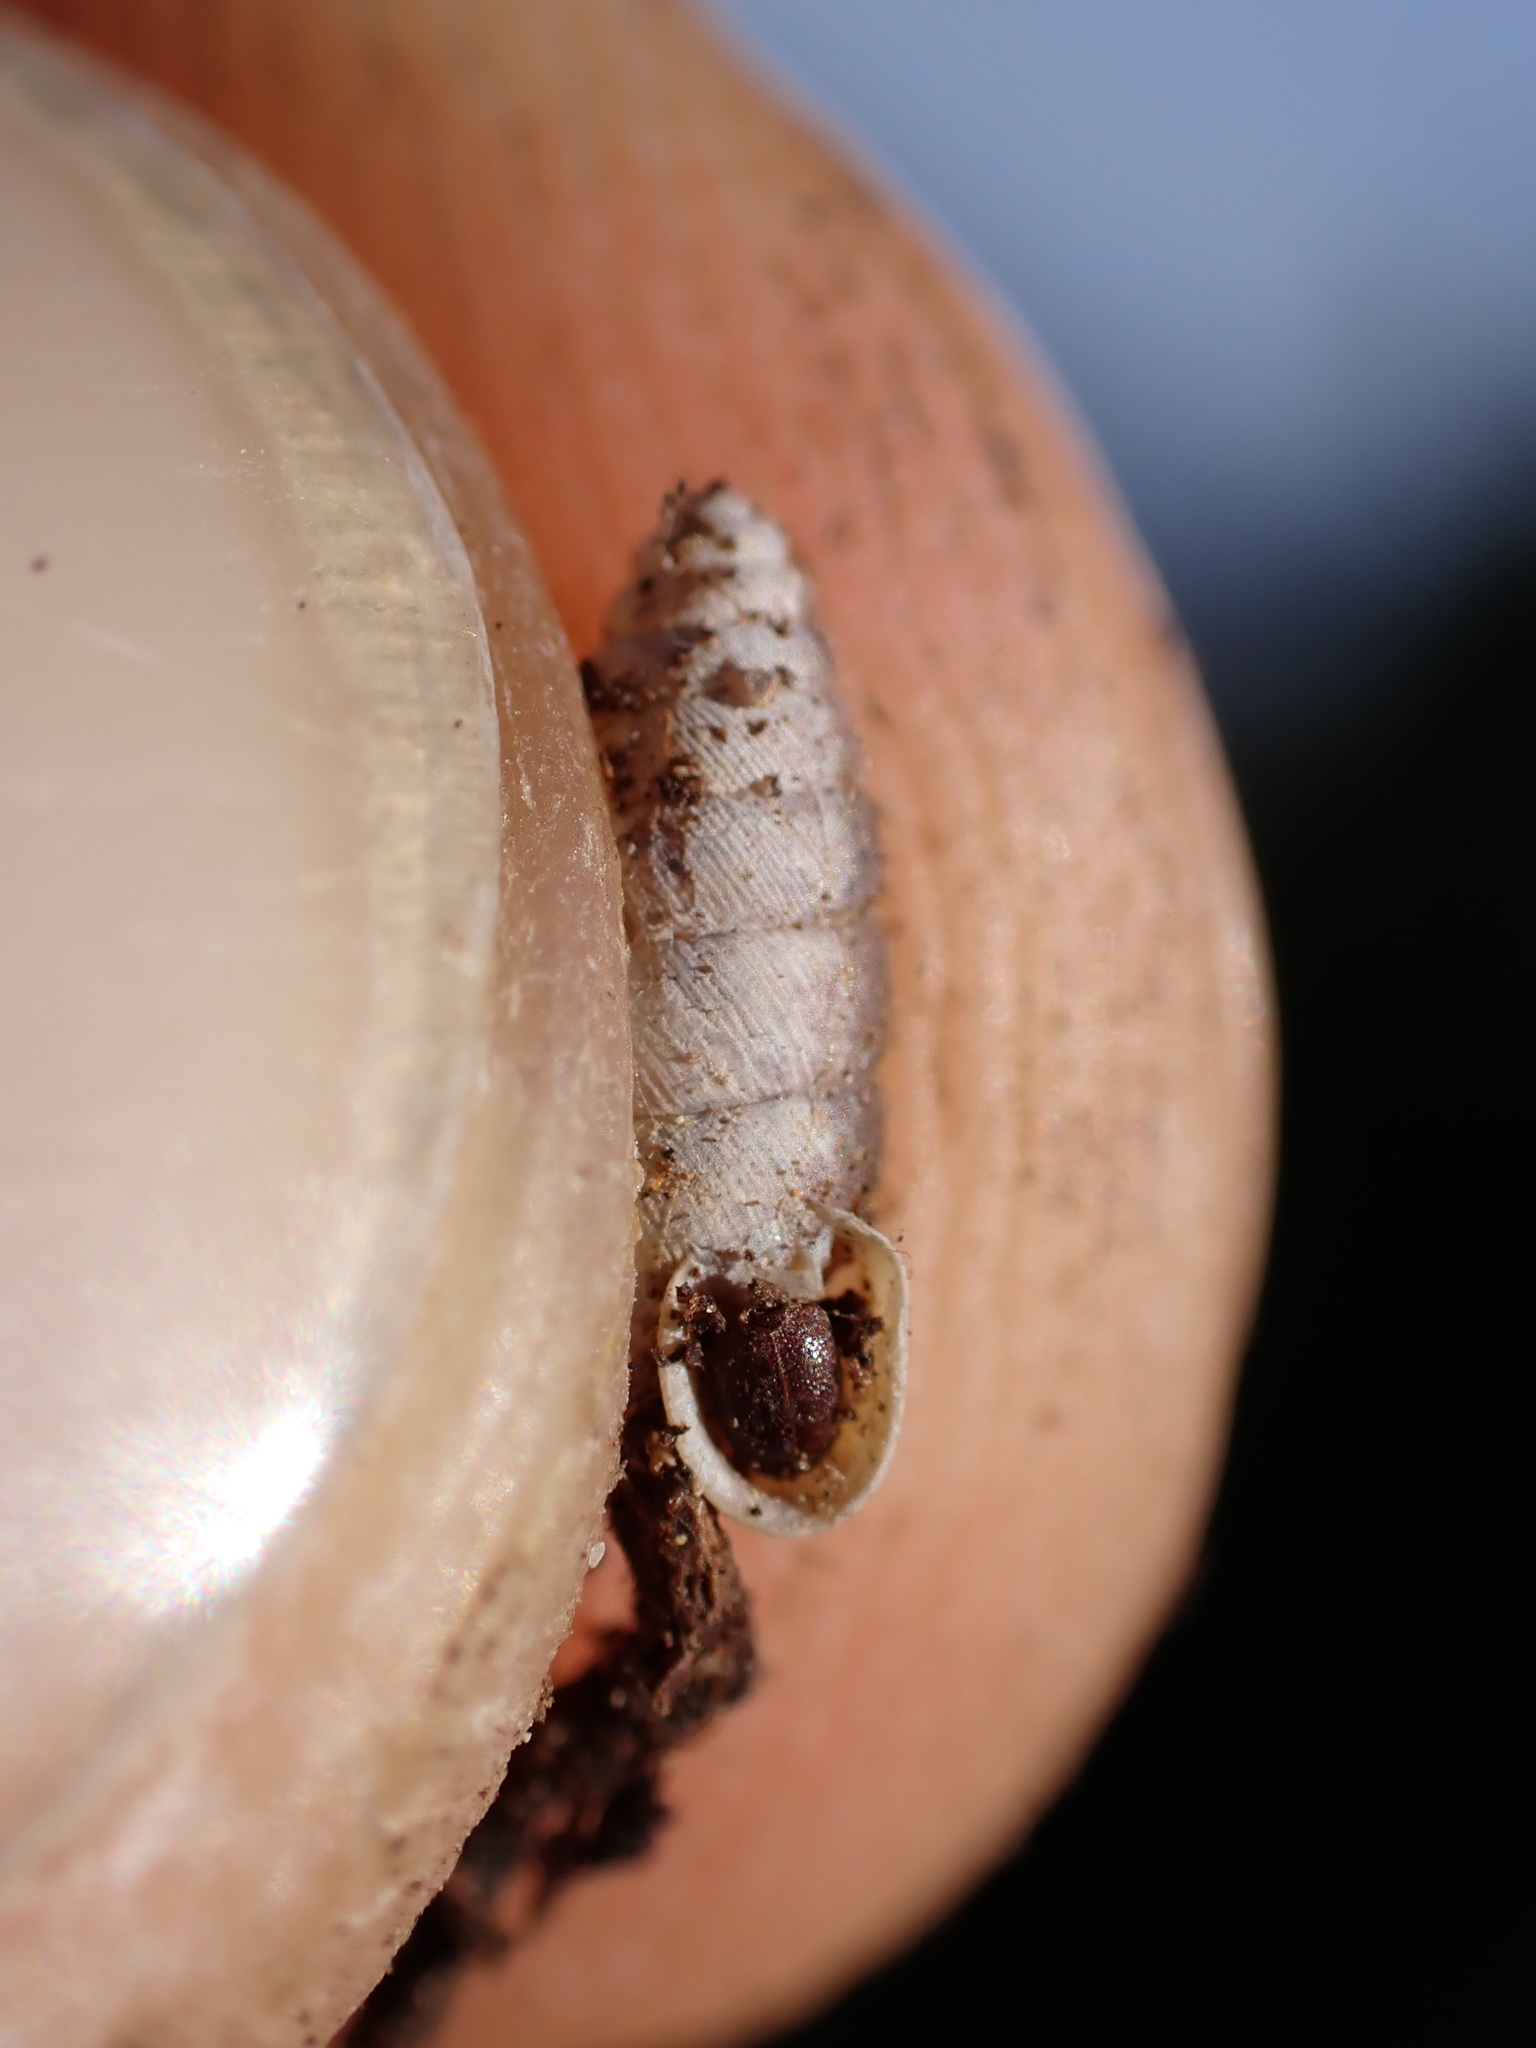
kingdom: Animalia
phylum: Mollusca
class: Gastropoda
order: Stylommatophora
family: Chondrinidae
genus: Granaria
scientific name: Granaria variabilis
